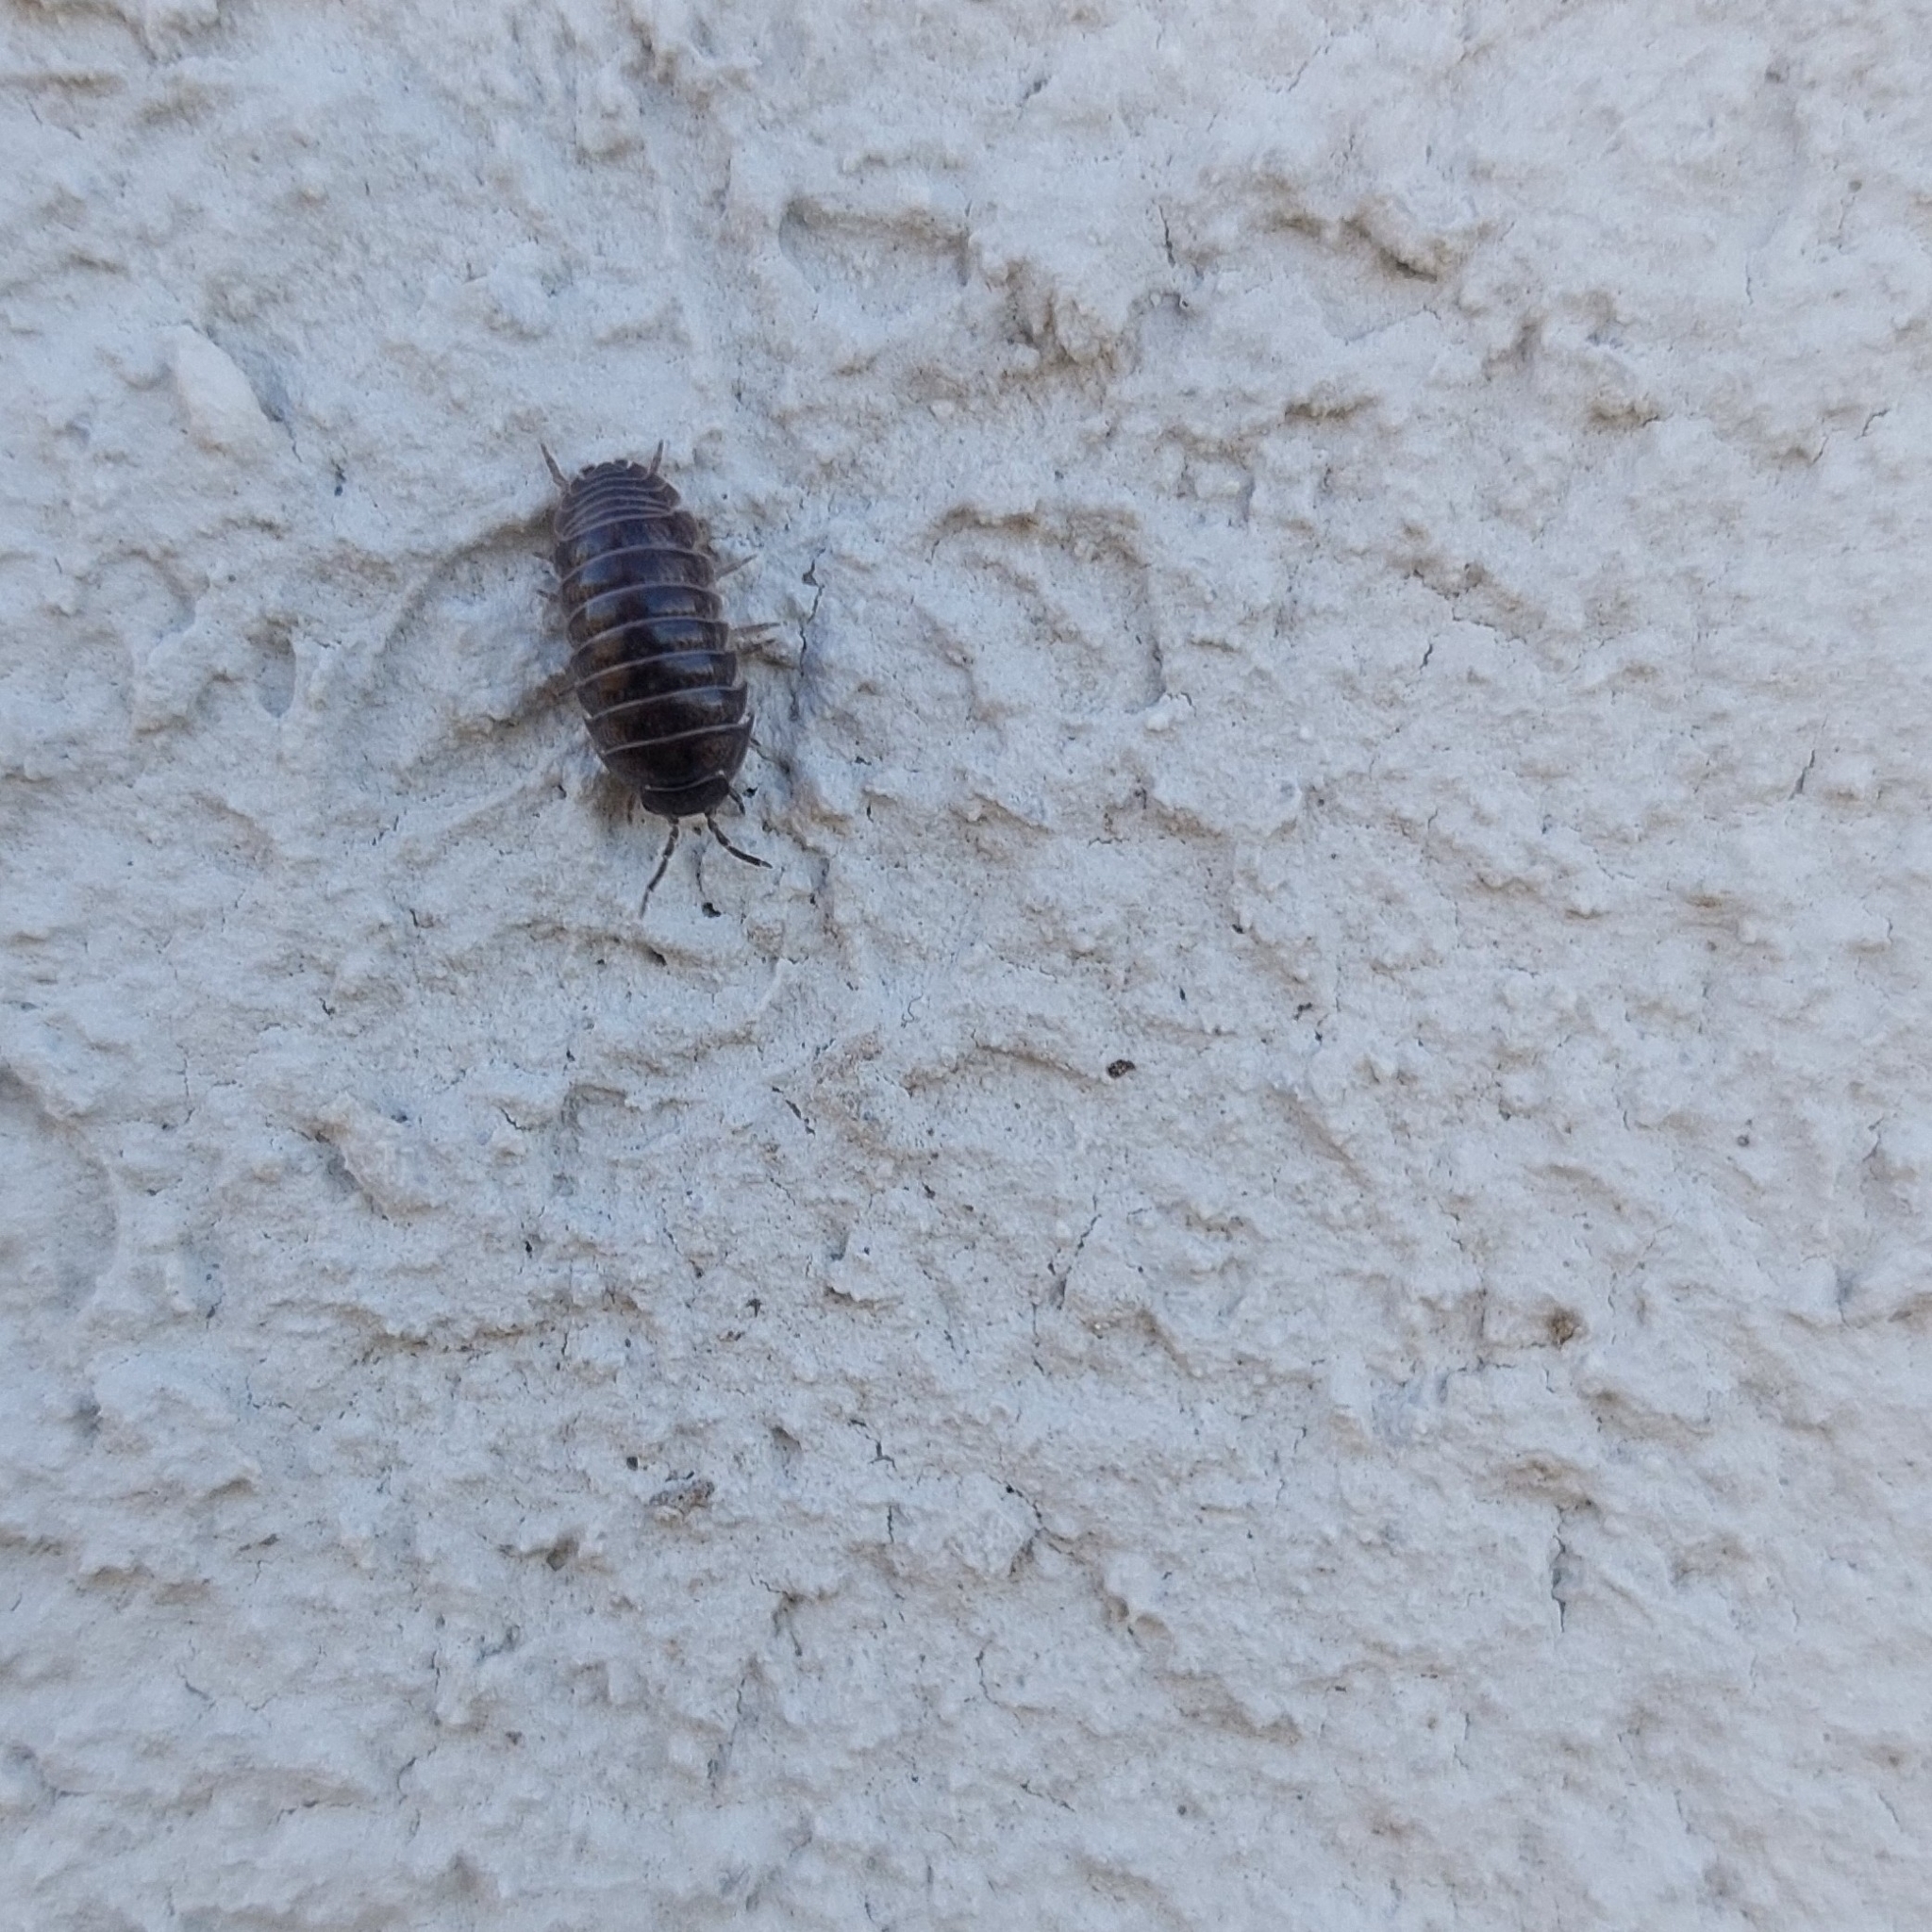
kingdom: Animalia
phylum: Arthropoda
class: Malacostraca
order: Isopoda
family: Armadillidiidae
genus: Armadillidium
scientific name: Armadillidium vulgare
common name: Common pill woodlouse
